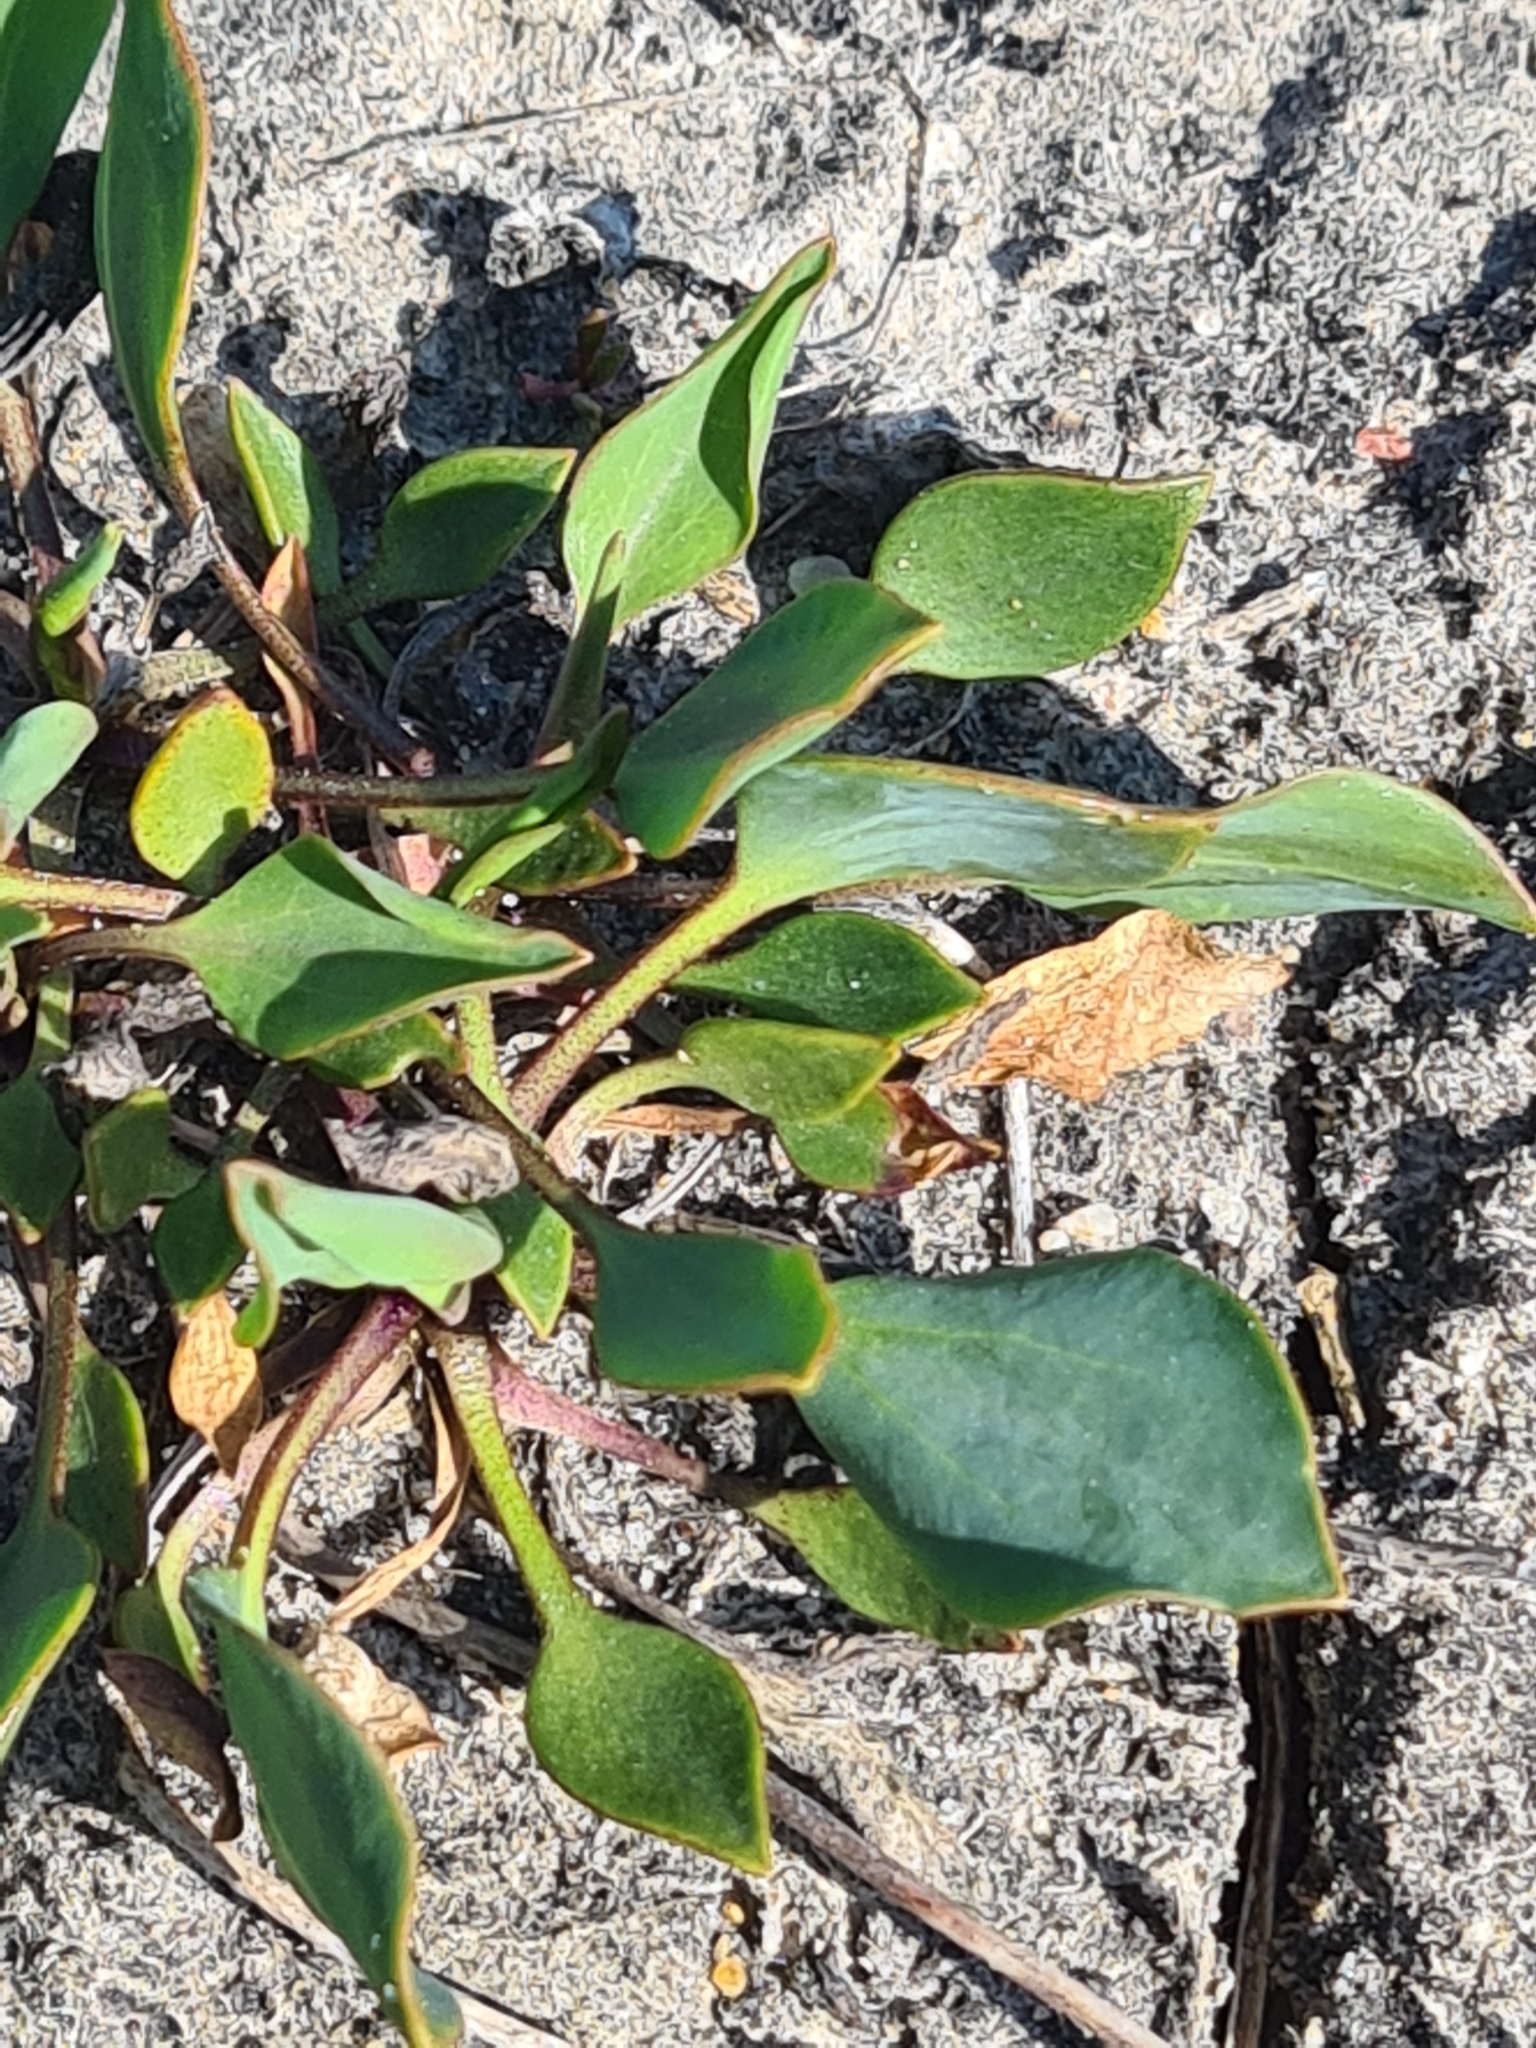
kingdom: Plantae
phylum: Tracheophyta
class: Magnoliopsida
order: Brassicales
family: Brassicaceae
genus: Lepidium
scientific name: Lepidium cartilagineum
